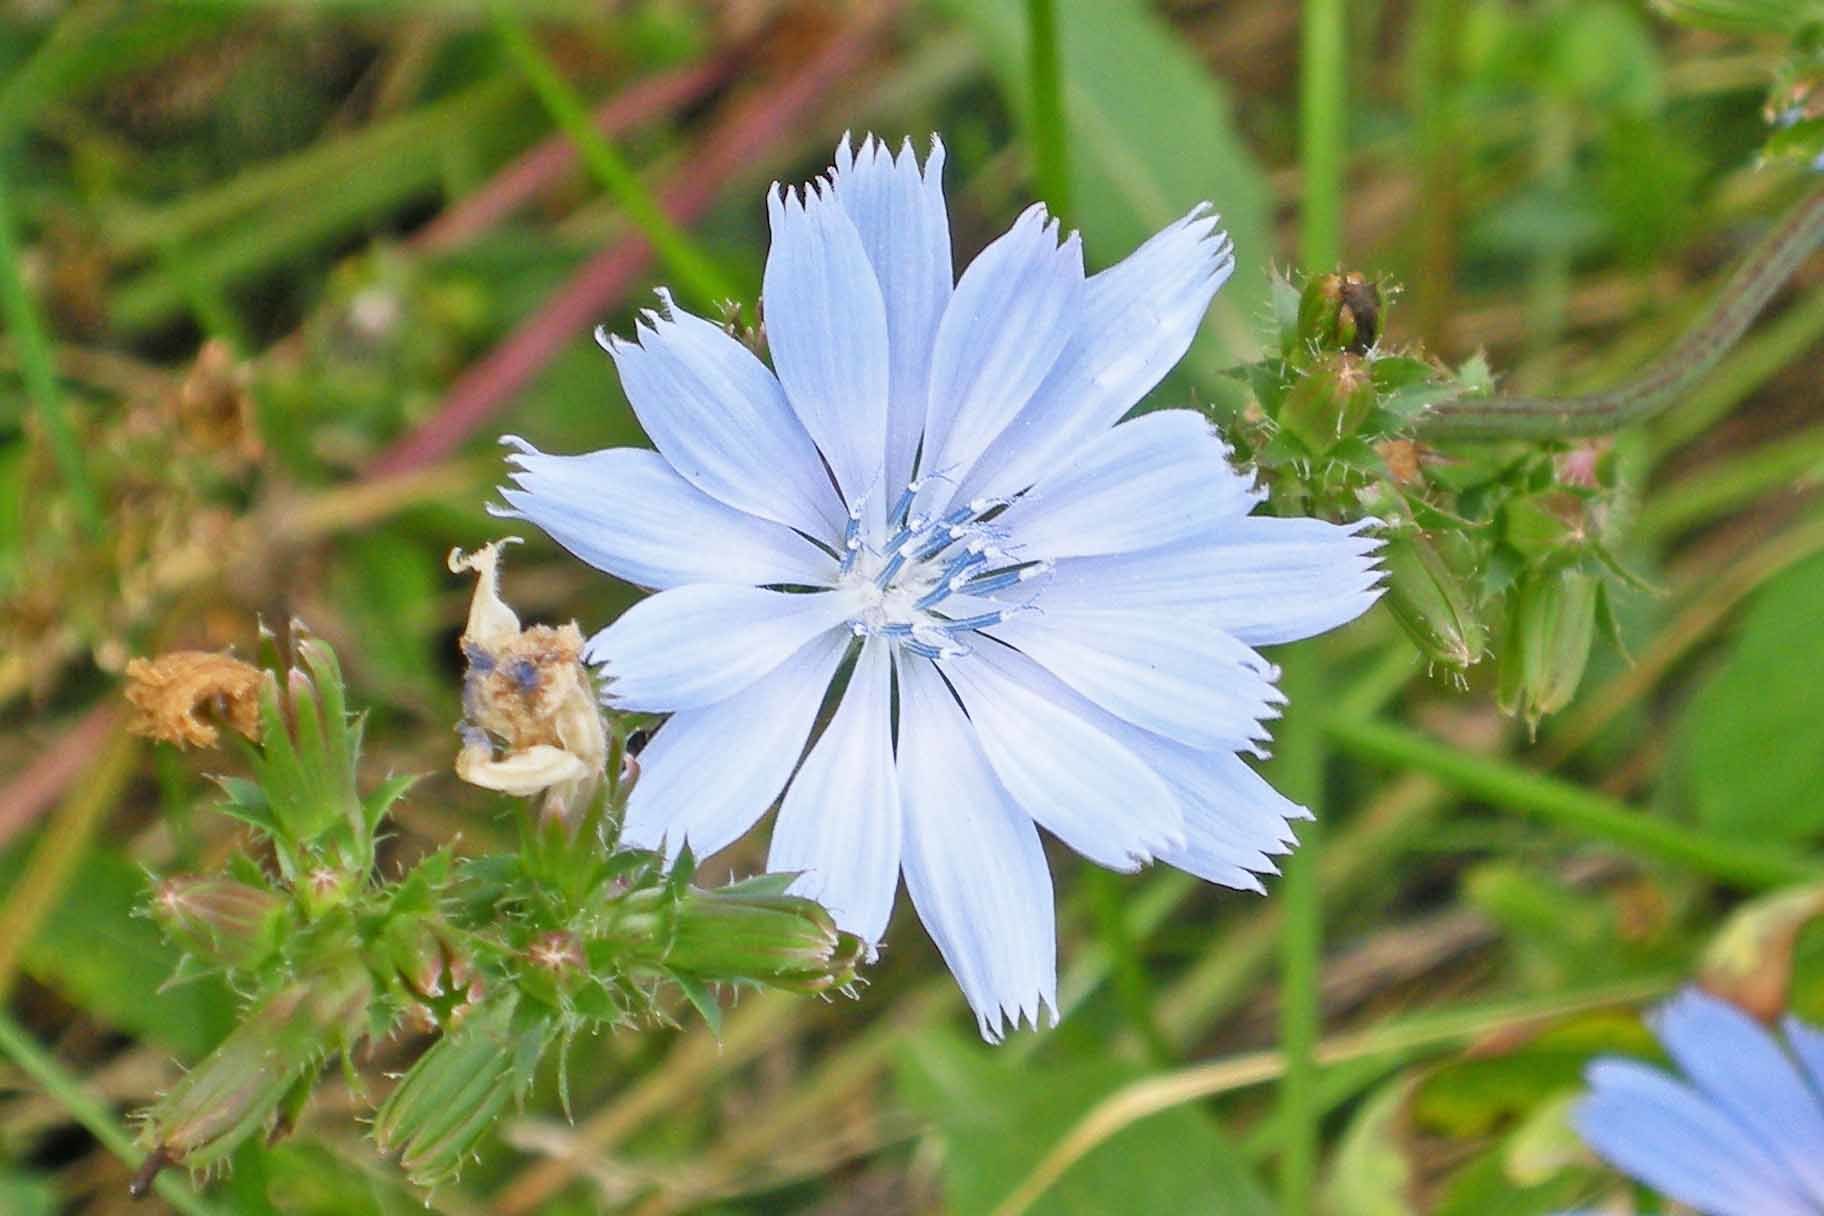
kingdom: Plantae
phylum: Tracheophyta
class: Magnoliopsida
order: Asterales
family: Asteraceae
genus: Cichorium
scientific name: Cichorium intybus
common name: Chicory
